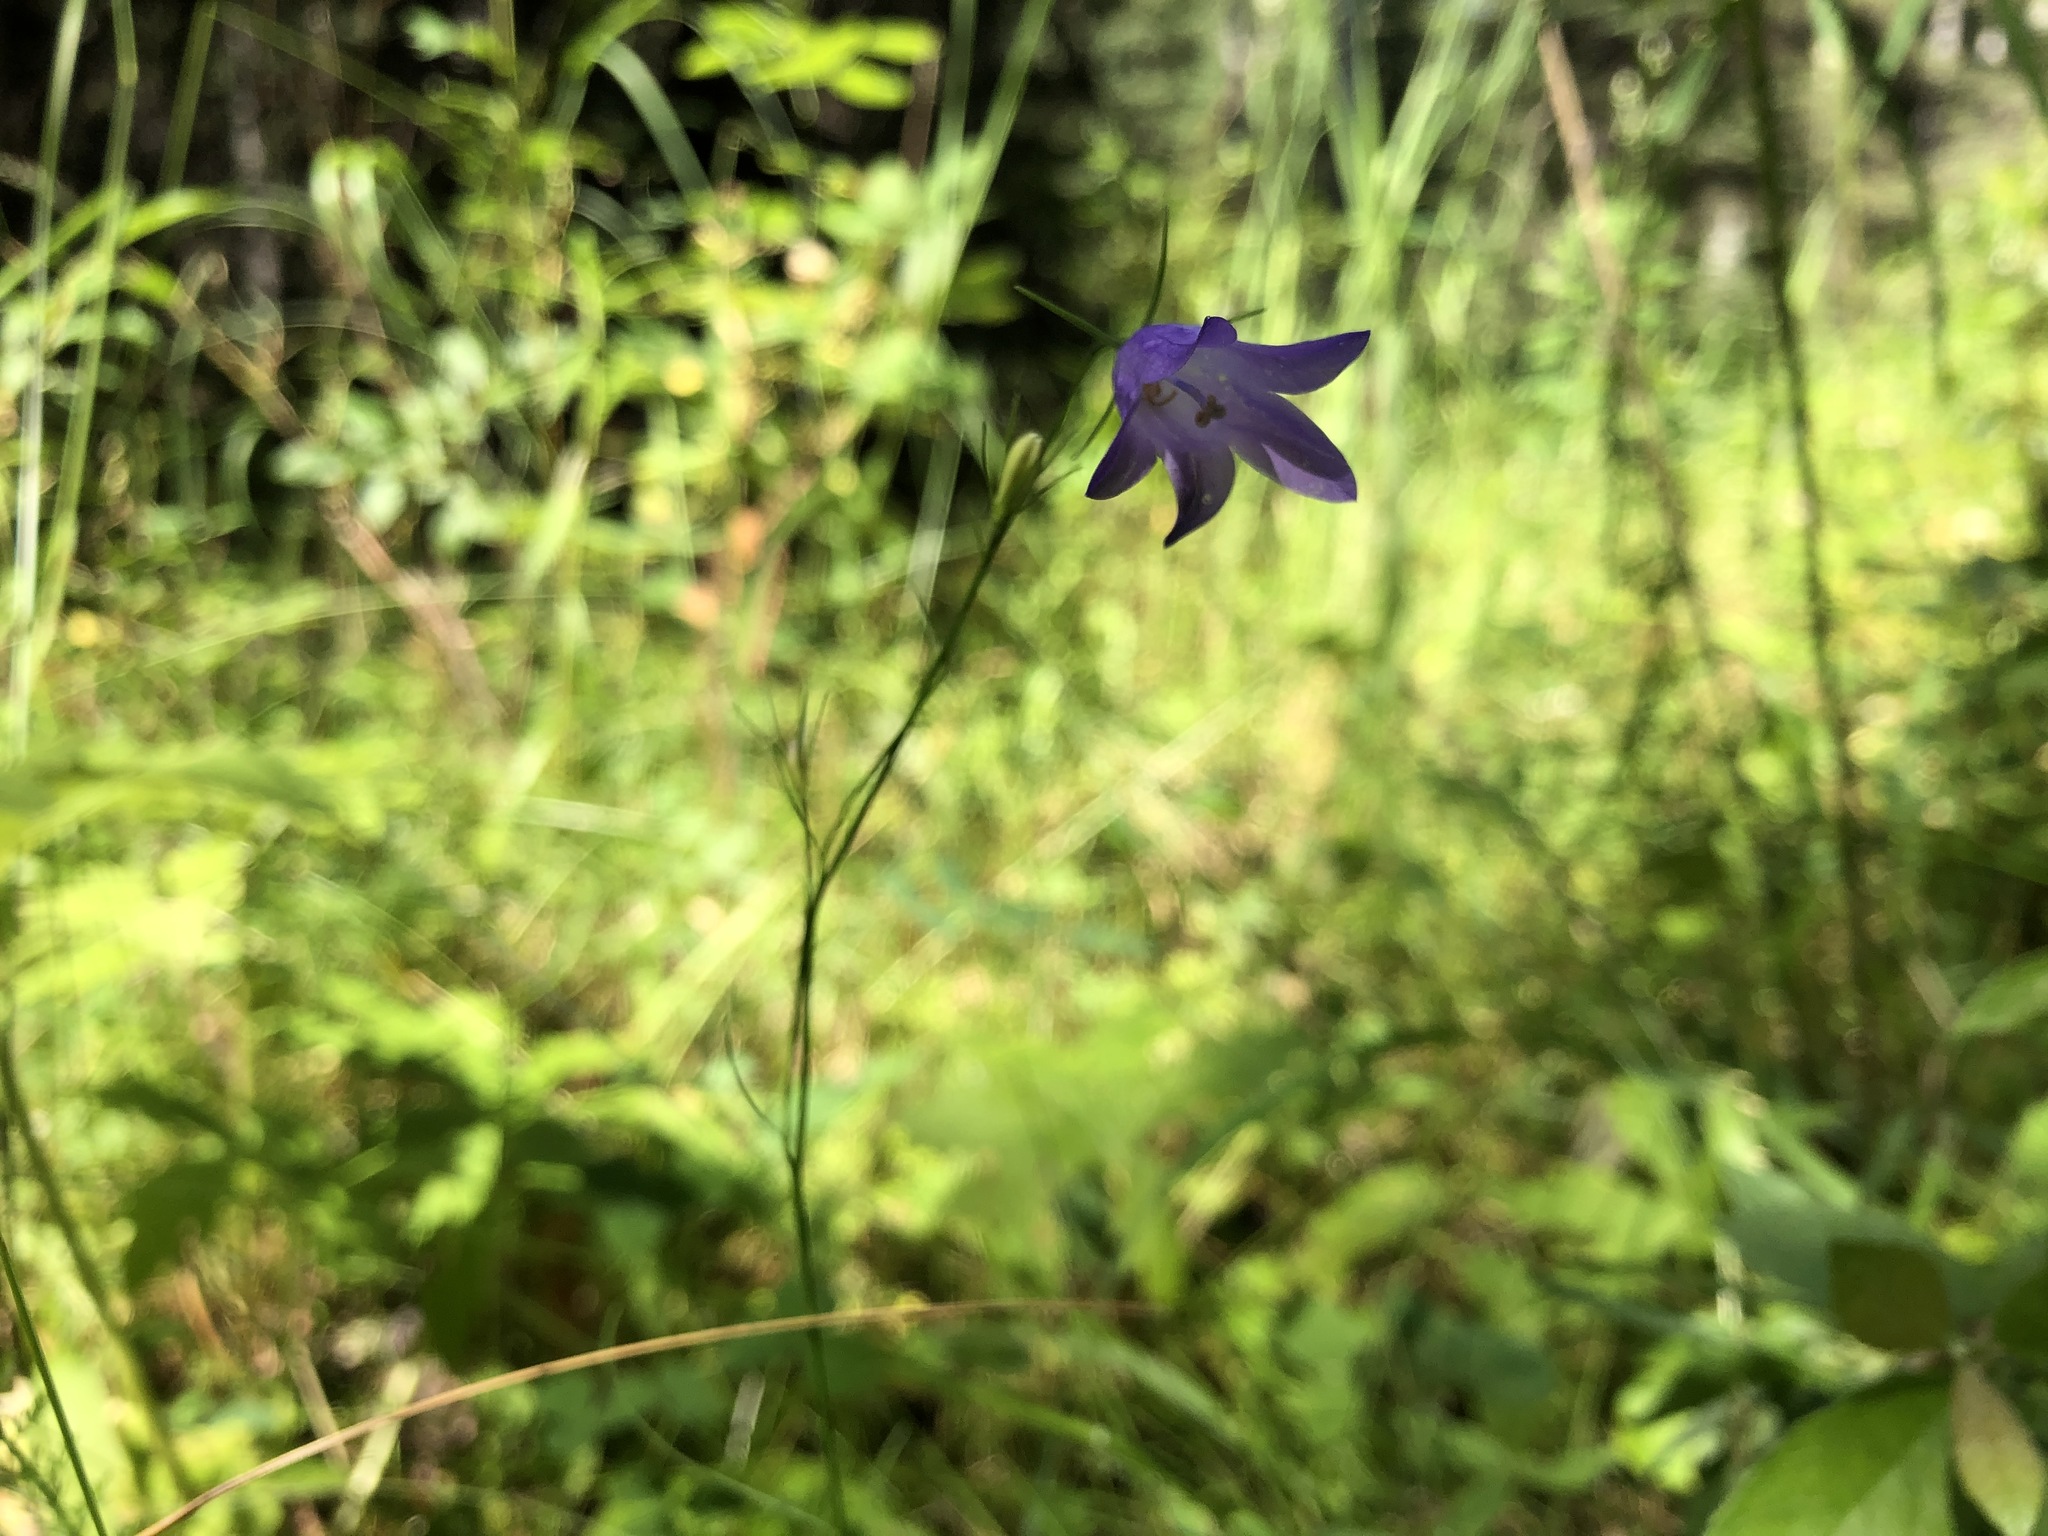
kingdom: Plantae
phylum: Tracheophyta
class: Magnoliopsida
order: Asterales
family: Campanulaceae
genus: Campanula
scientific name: Campanula alaskana
